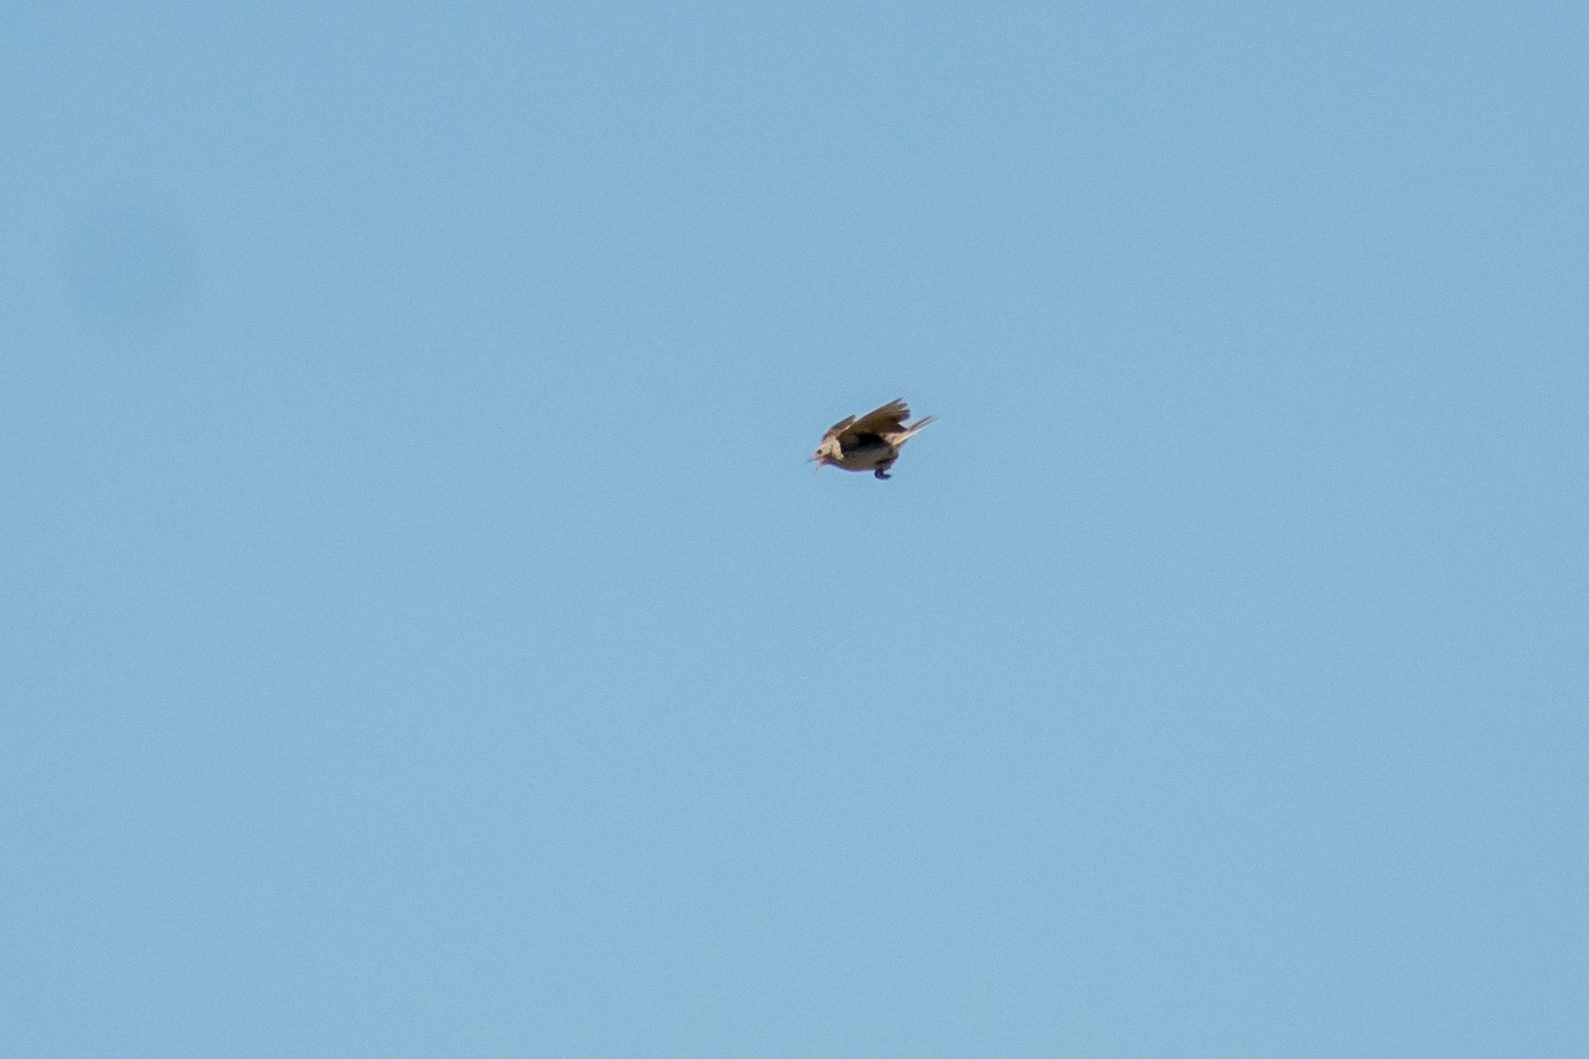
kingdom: Animalia
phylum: Chordata
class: Aves
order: Passeriformes
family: Motacillidae
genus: Anthus
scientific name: Anthus chii
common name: Yellowish pipit
